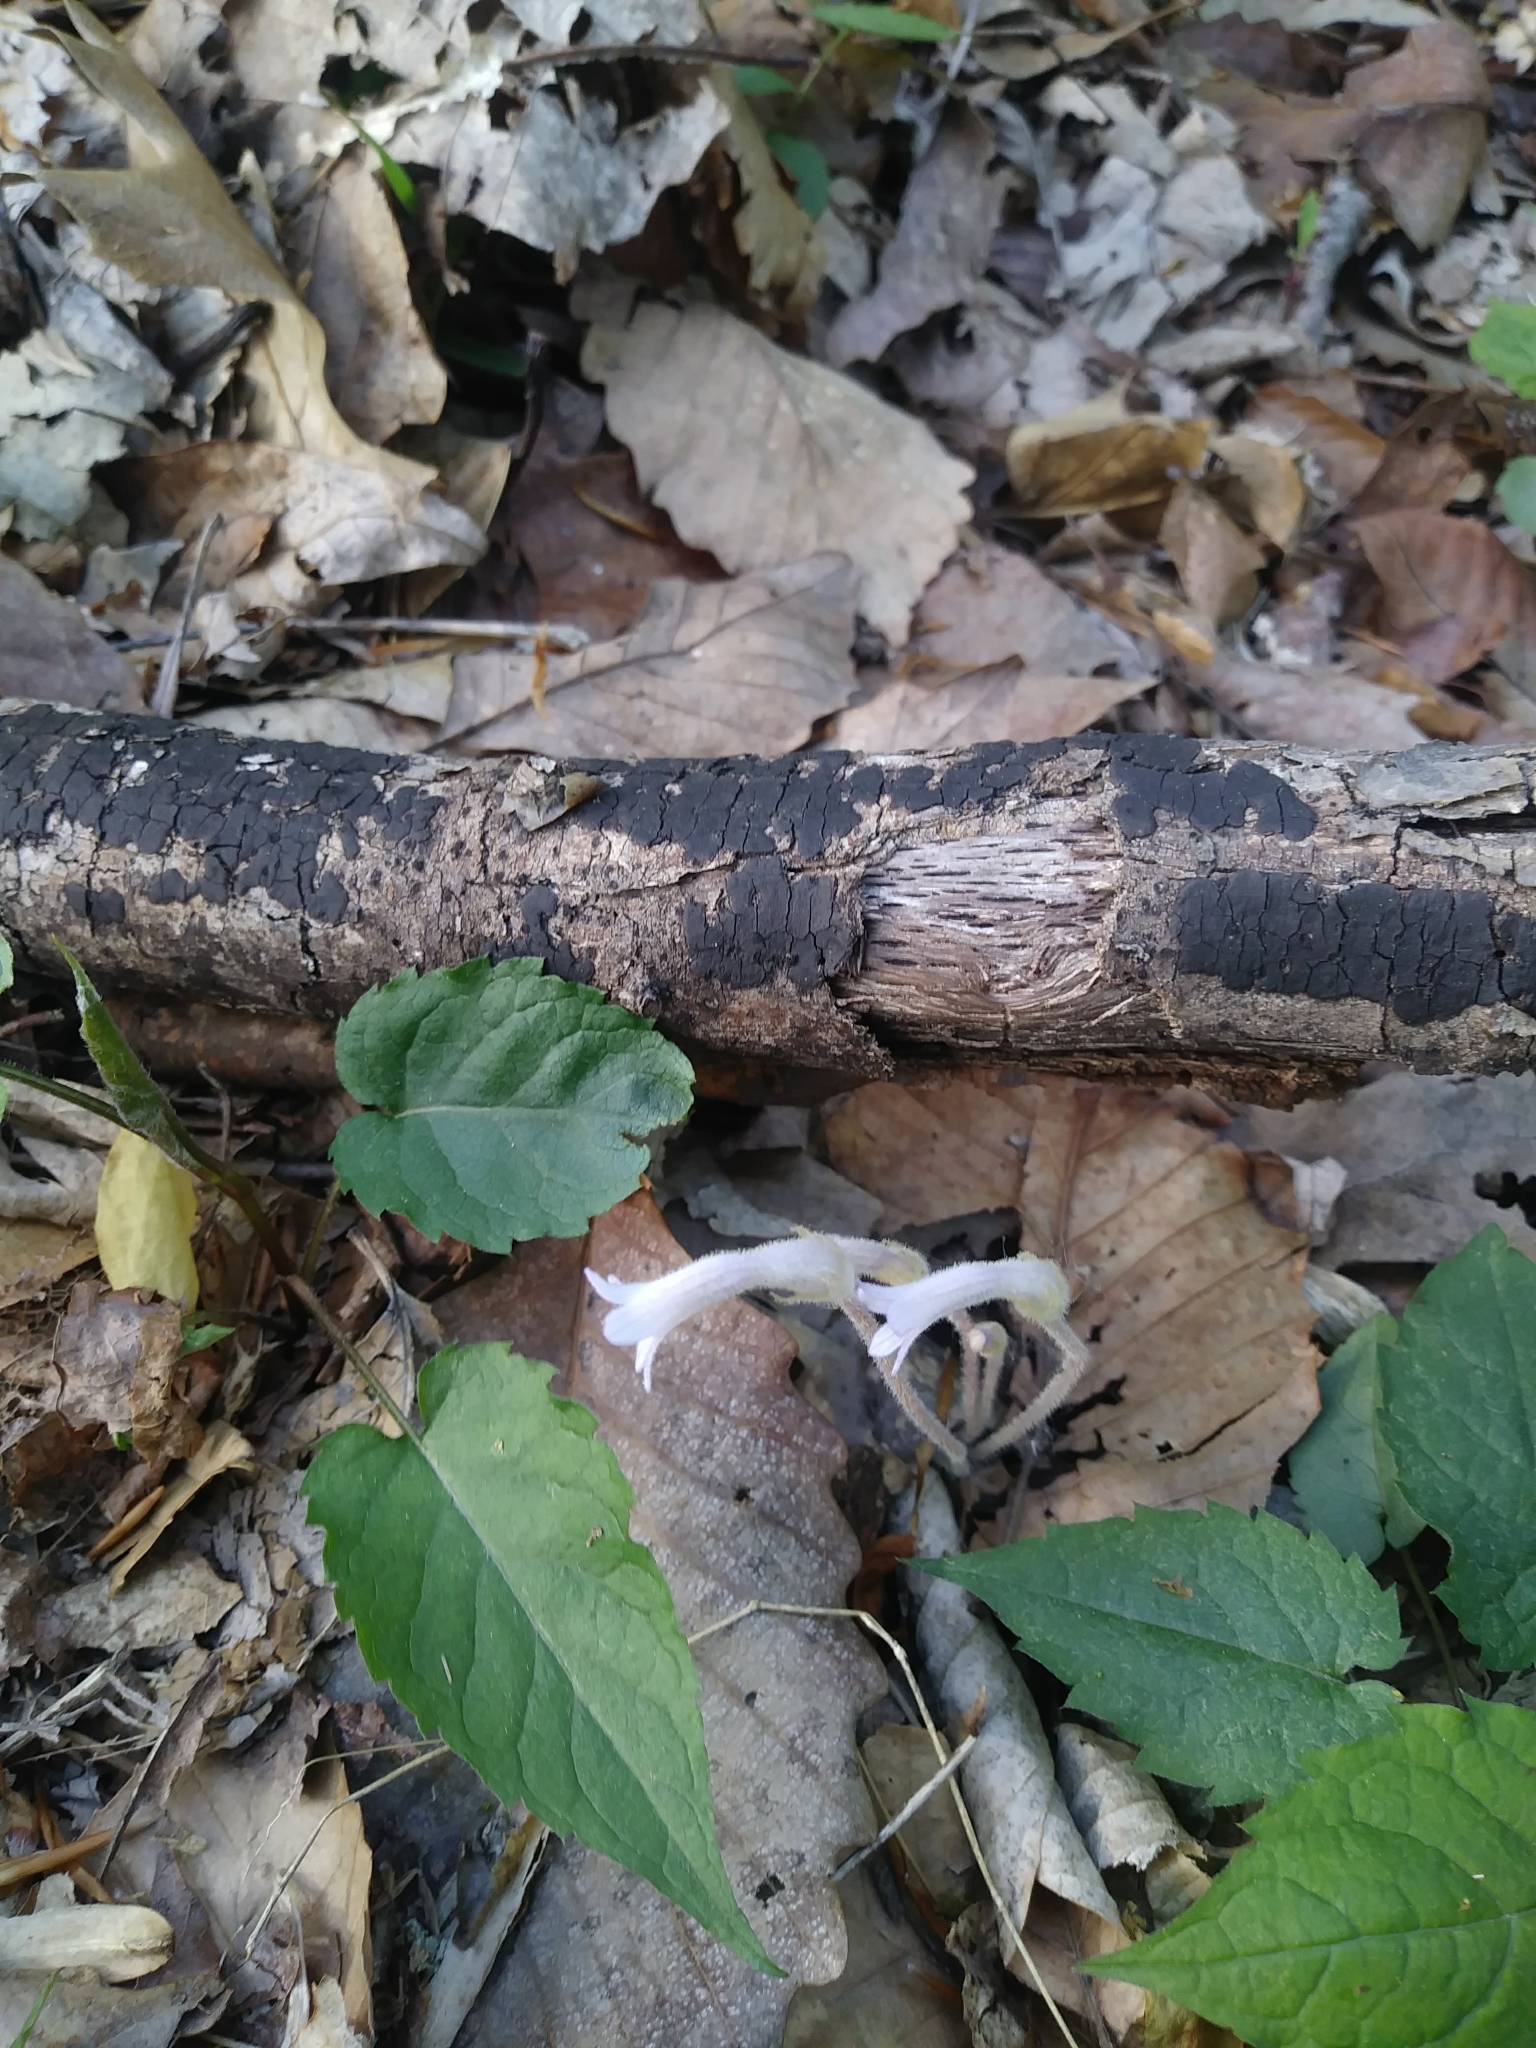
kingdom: Plantae
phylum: Tracheophyta
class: Magnoliopsida
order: Lamiales
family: Orobanchaceae
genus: Aphyllon
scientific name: Aphyllon uniflorum
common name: One-flowered broomrape
